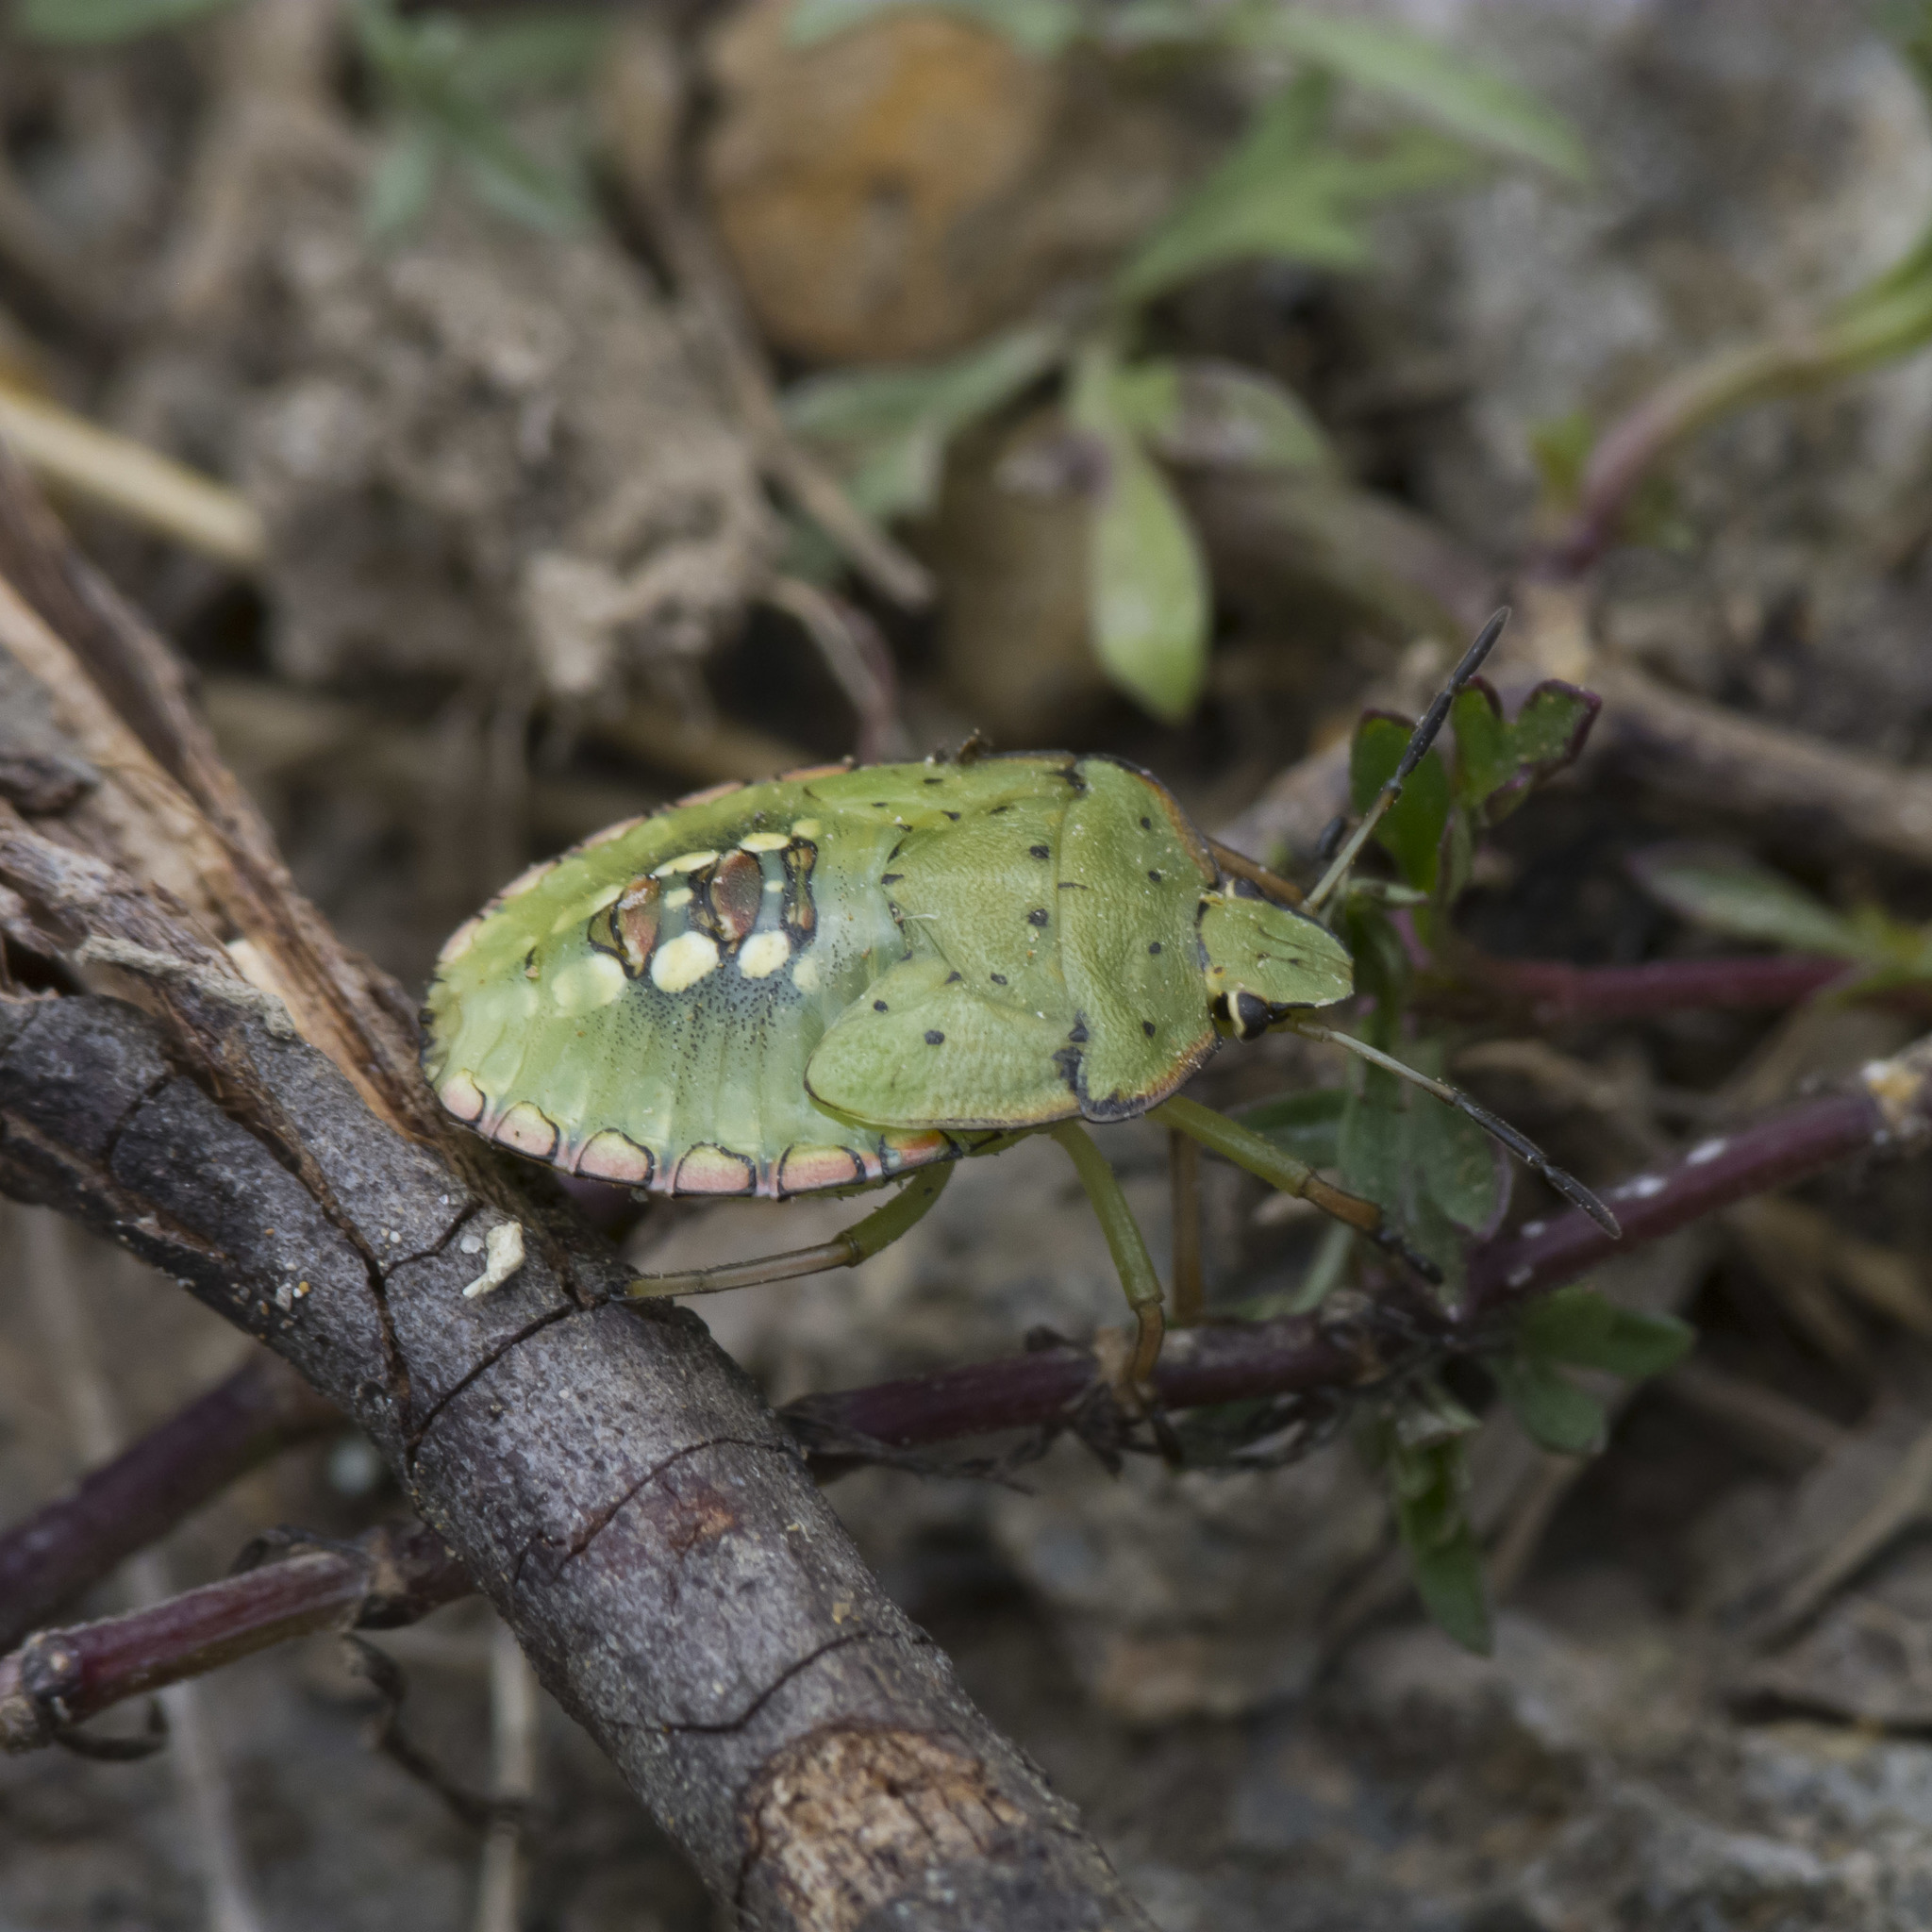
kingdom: Animalia
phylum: Arthropoda
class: Insecta
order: Hemiptera
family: Pentatomidae
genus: Nezara
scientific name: Nezara viridula
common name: Southern green stink bug
